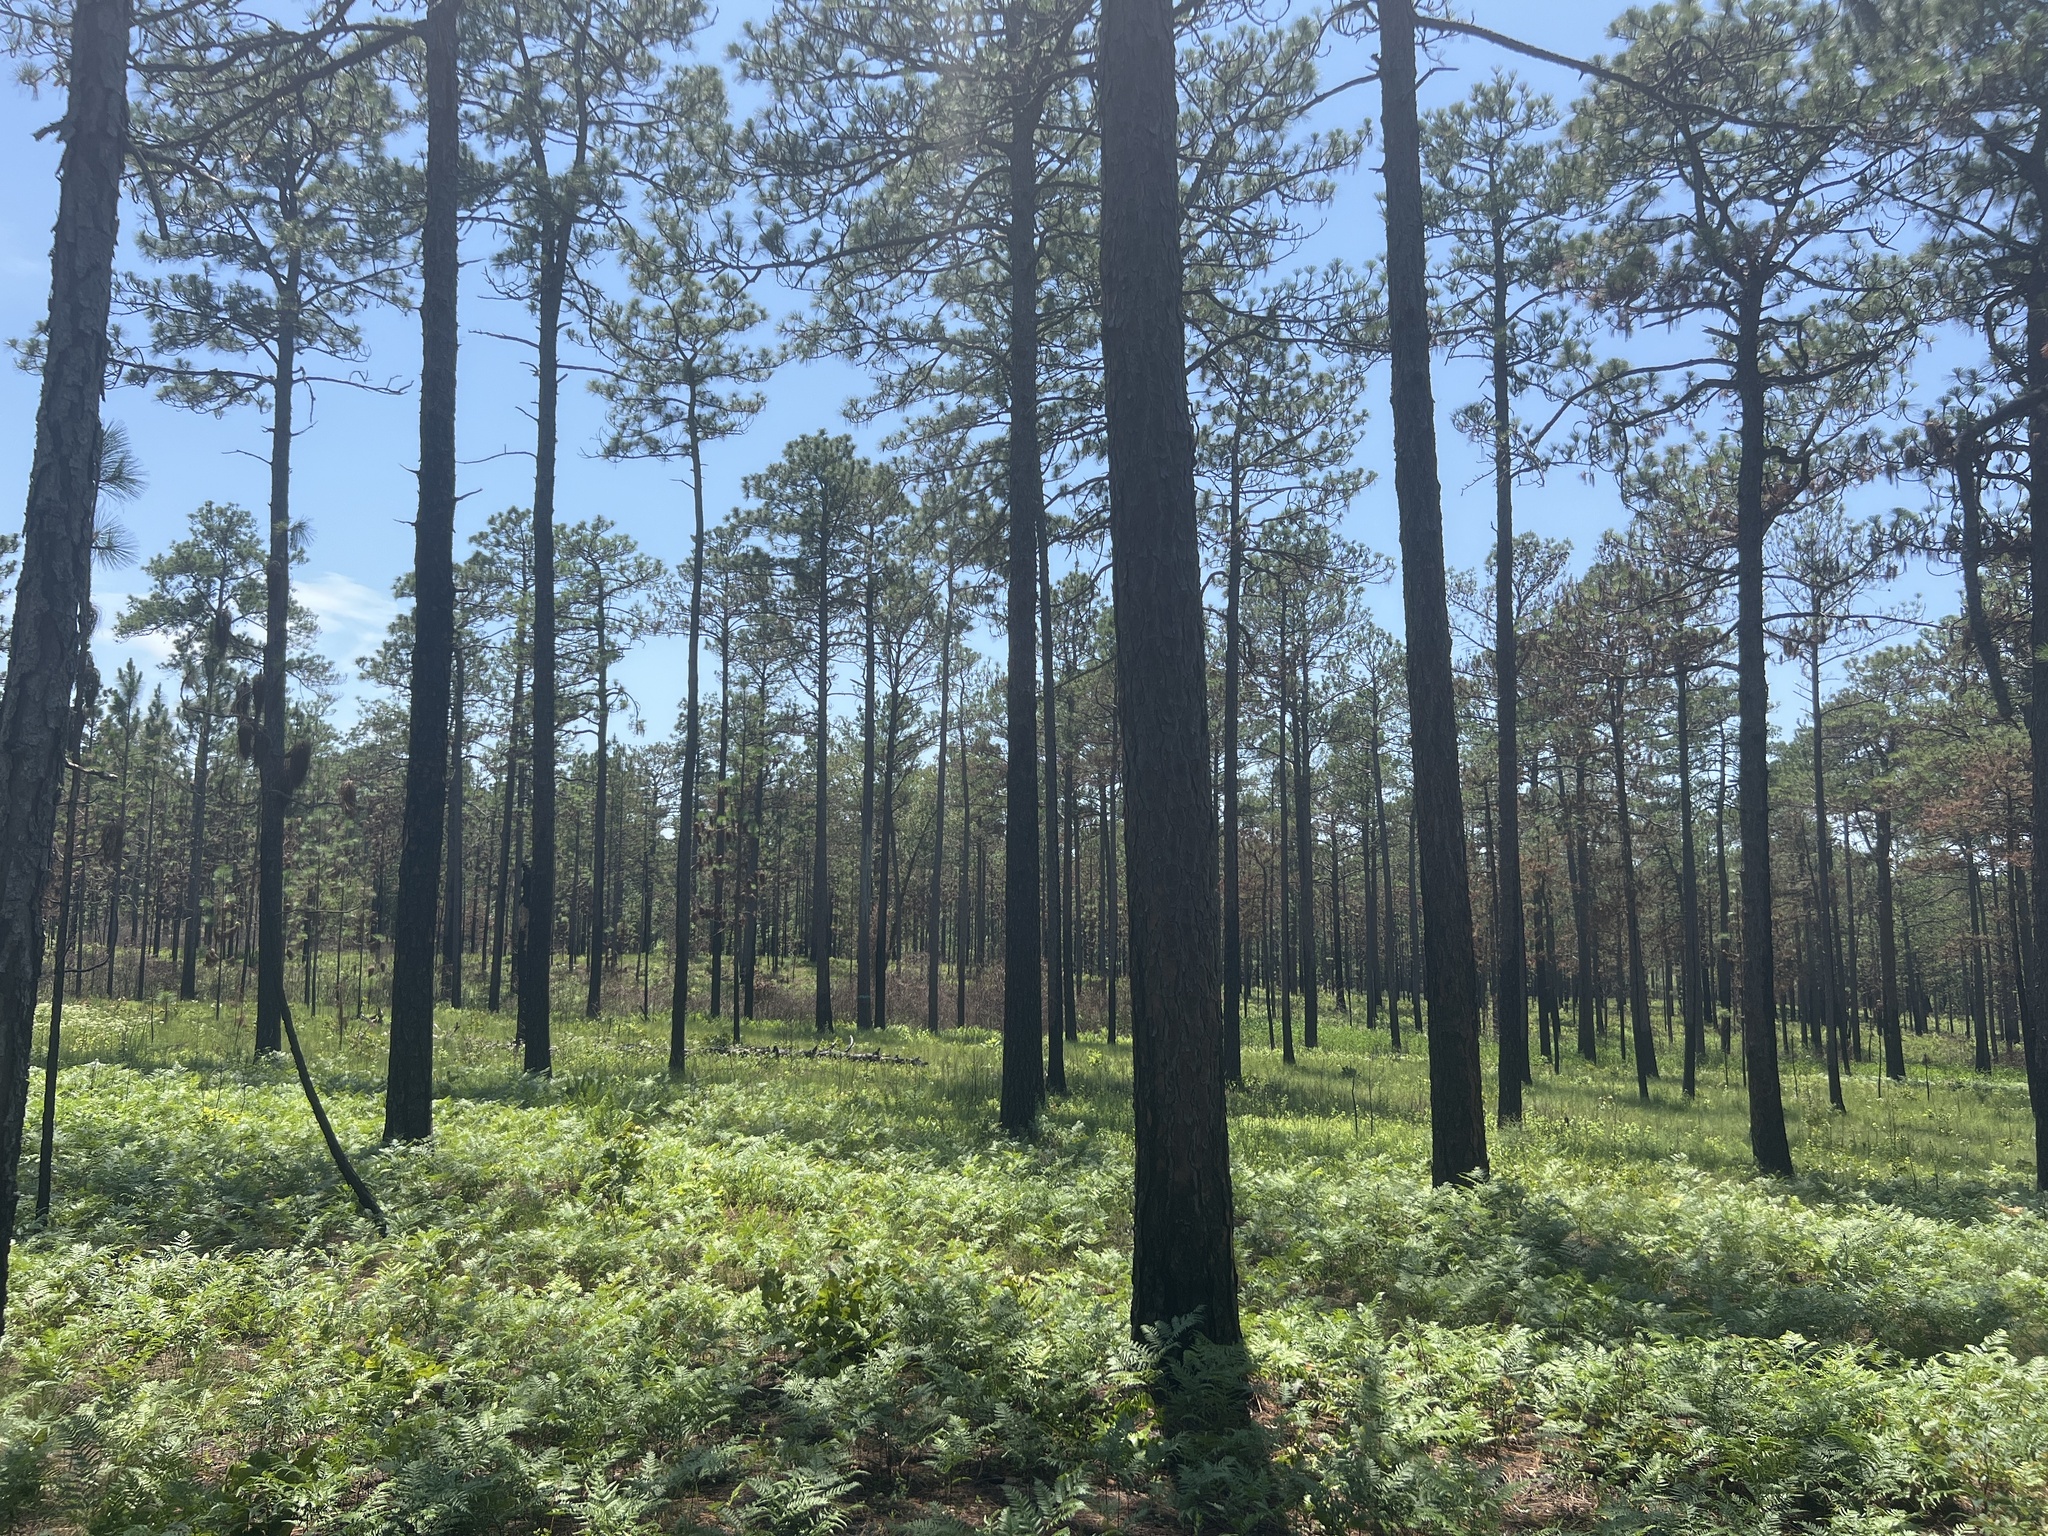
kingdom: Plantae
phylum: Tracheophyta
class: Pinopsida
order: Pinales
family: Pinaceae
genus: Pinus
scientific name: Pinus palustris
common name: Longleaf pine
